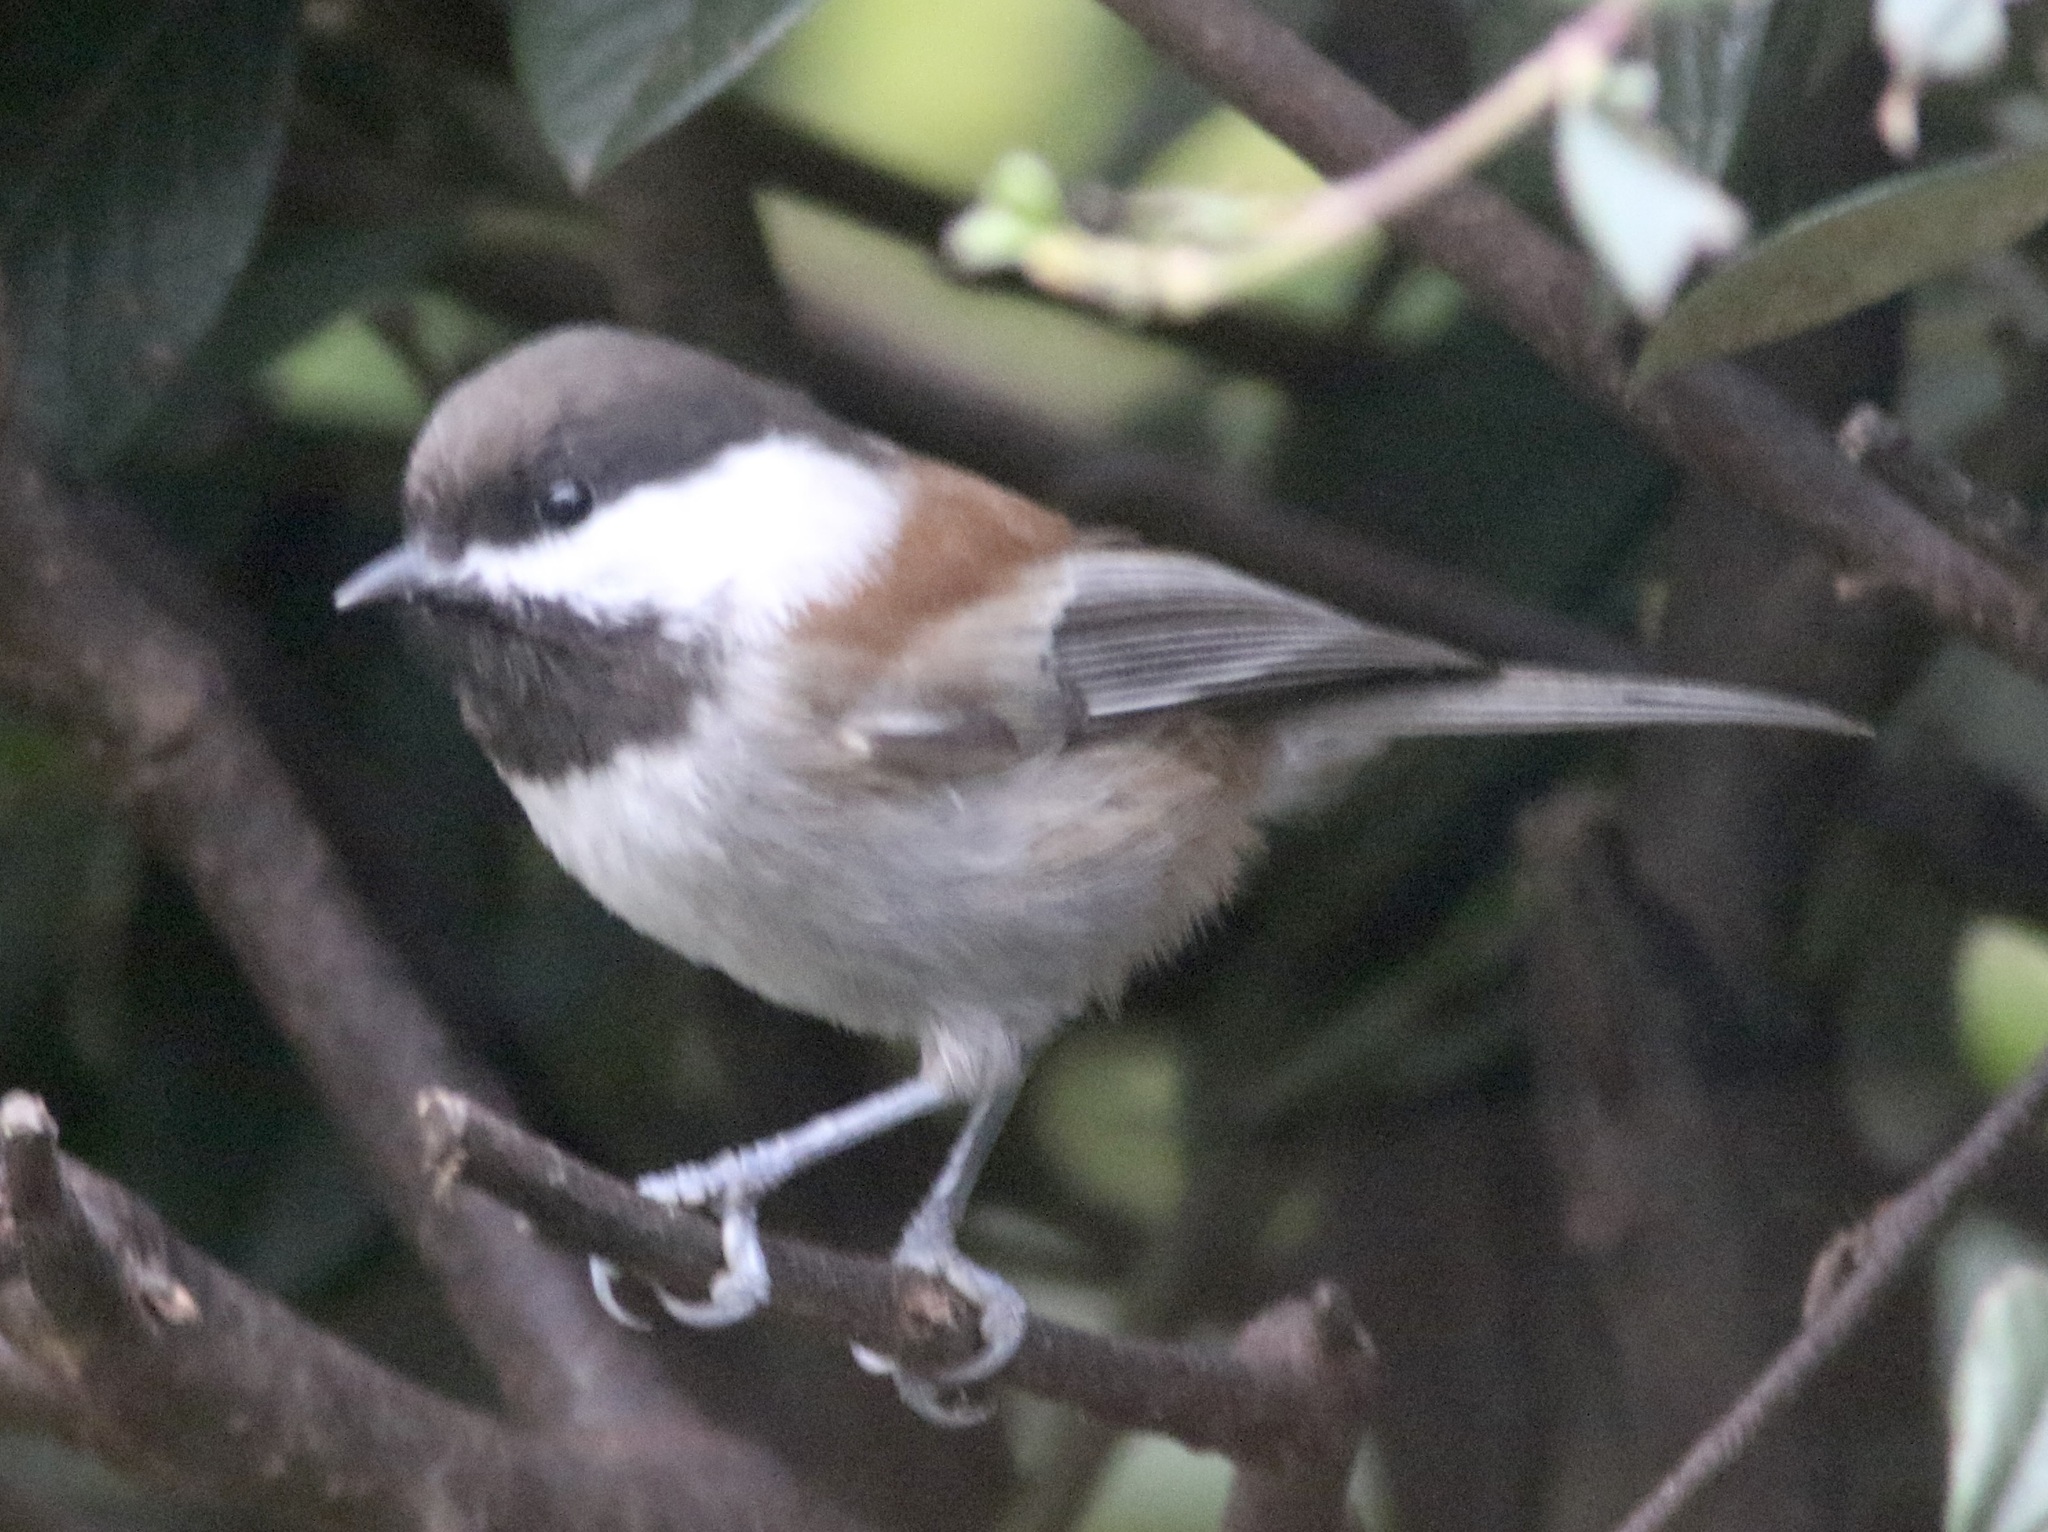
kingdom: Animalia
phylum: Chordata
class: Aves
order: Passeriformes
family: Paridae
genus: Poecile
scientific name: Poecile rufescens
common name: Chestnut-backed chickadee
